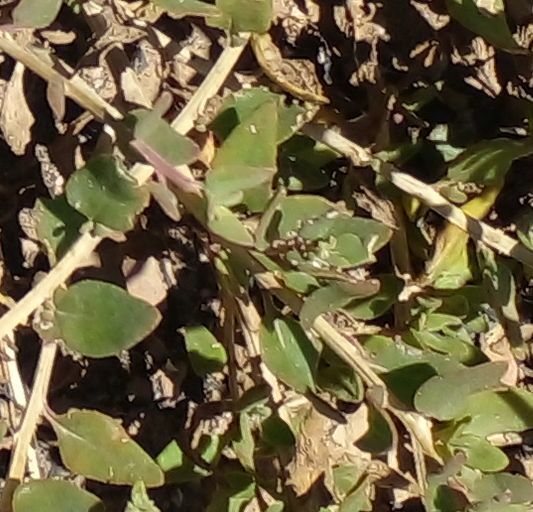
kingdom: Plantae
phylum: Tracheophyta
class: Magnoliopsida
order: Caryophyllales
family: Amaranthaceae
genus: Exomis
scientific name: Exomis albicans
